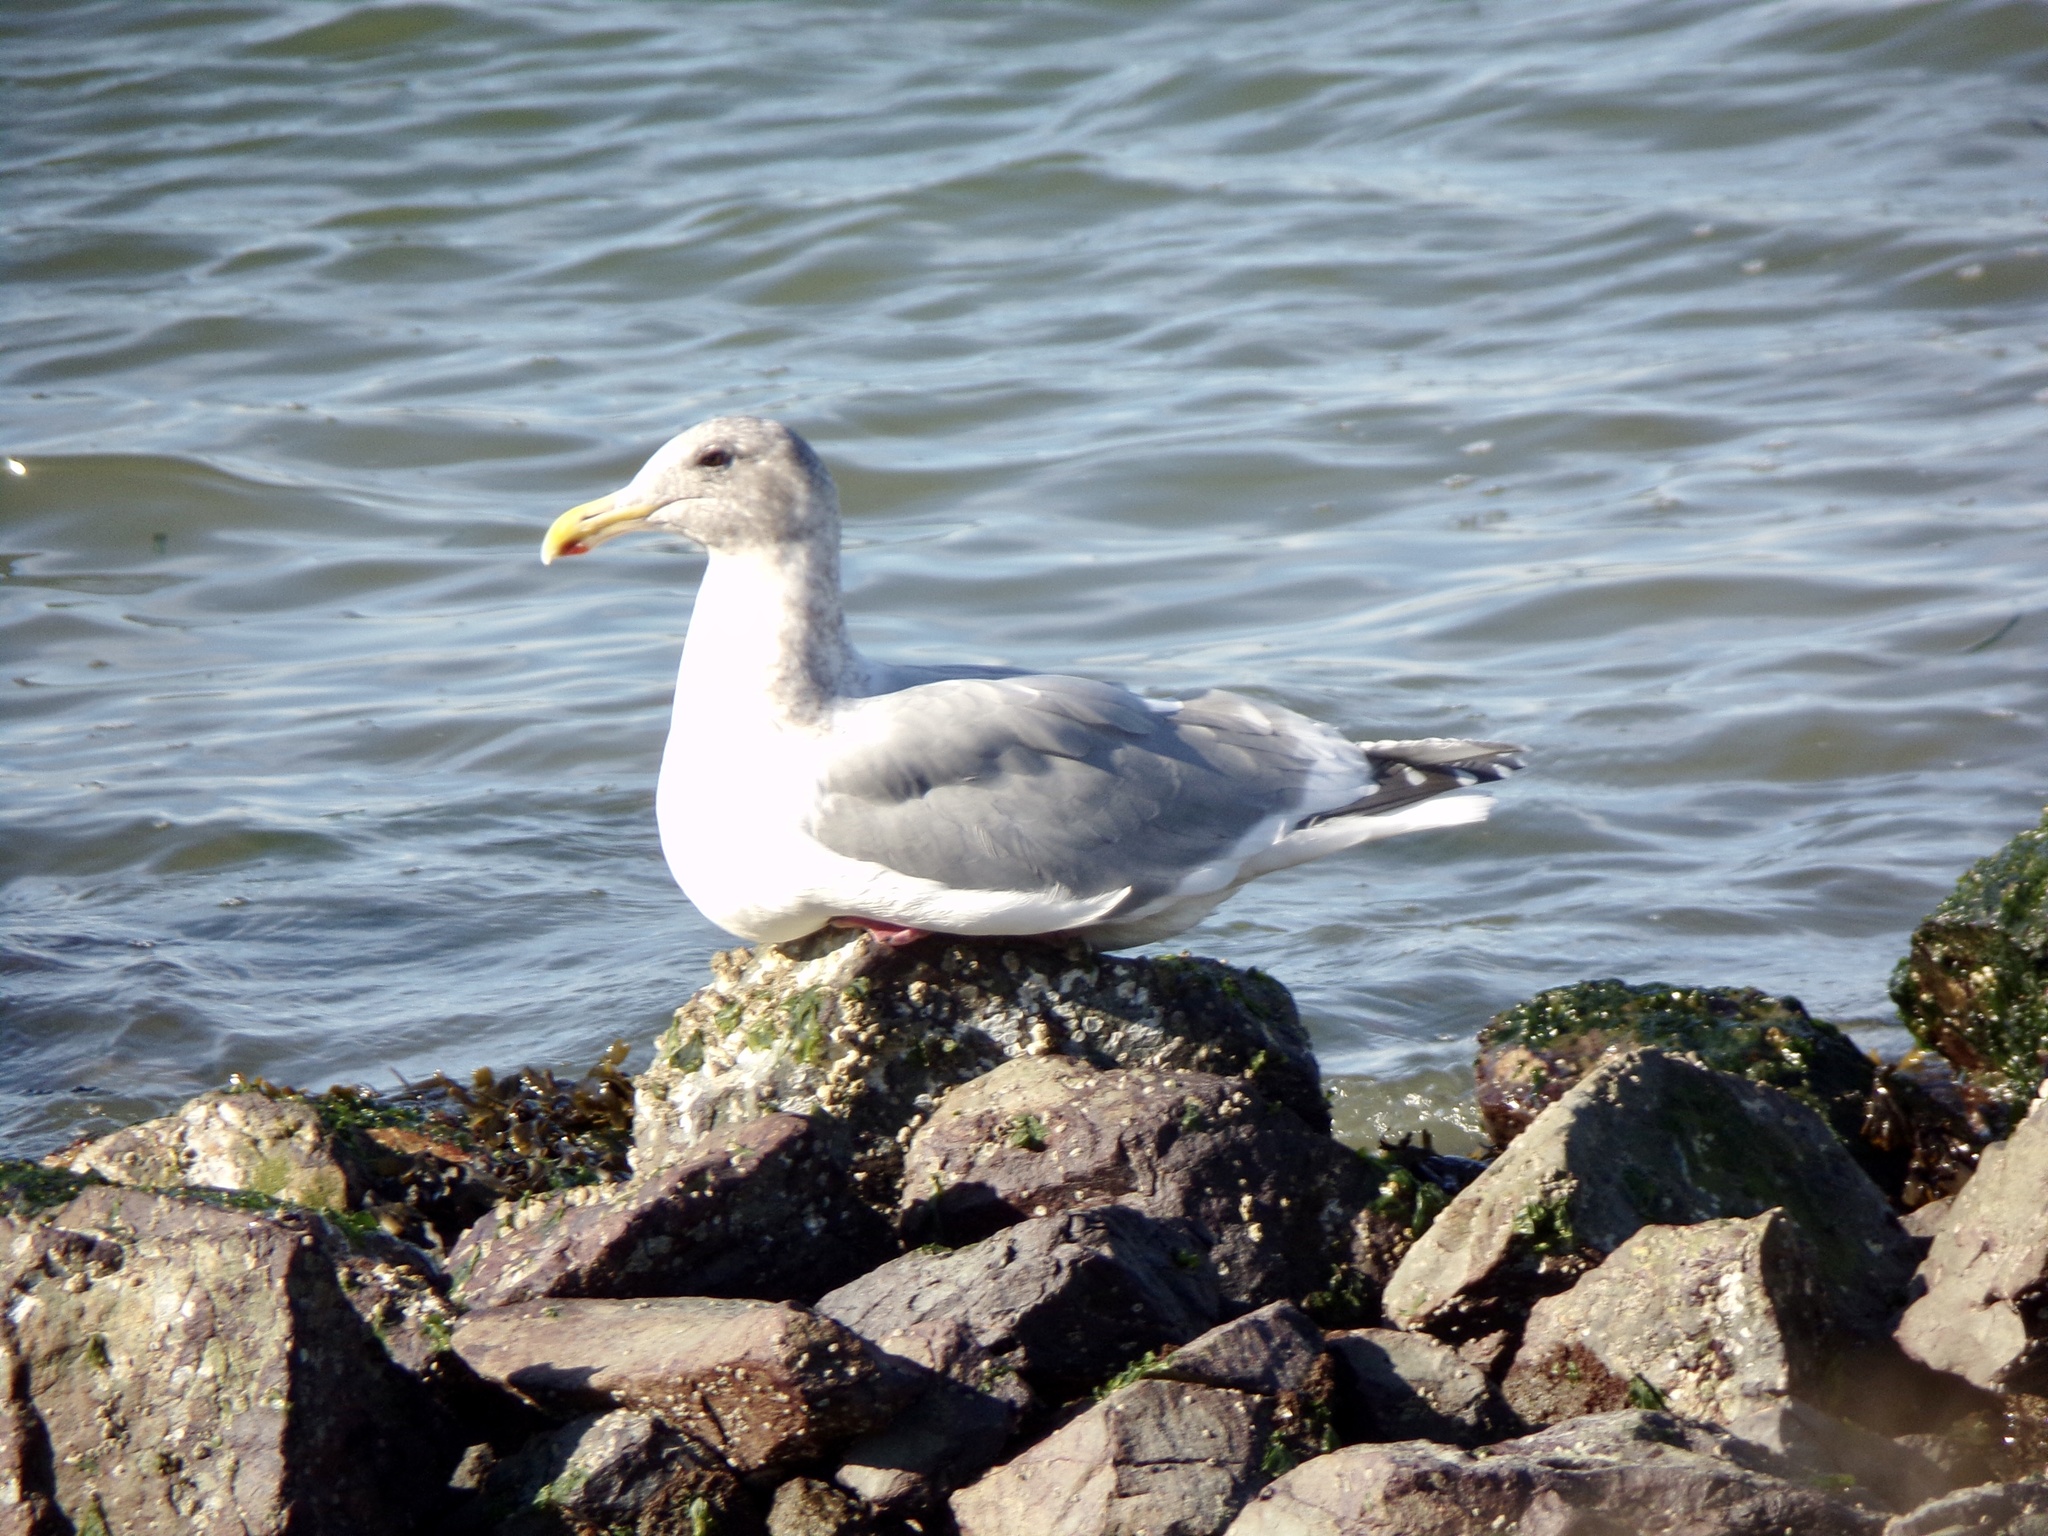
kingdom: Animalia
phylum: Chordata
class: Aves
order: Charadriiformes
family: Laridae
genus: Larus
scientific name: Larus
